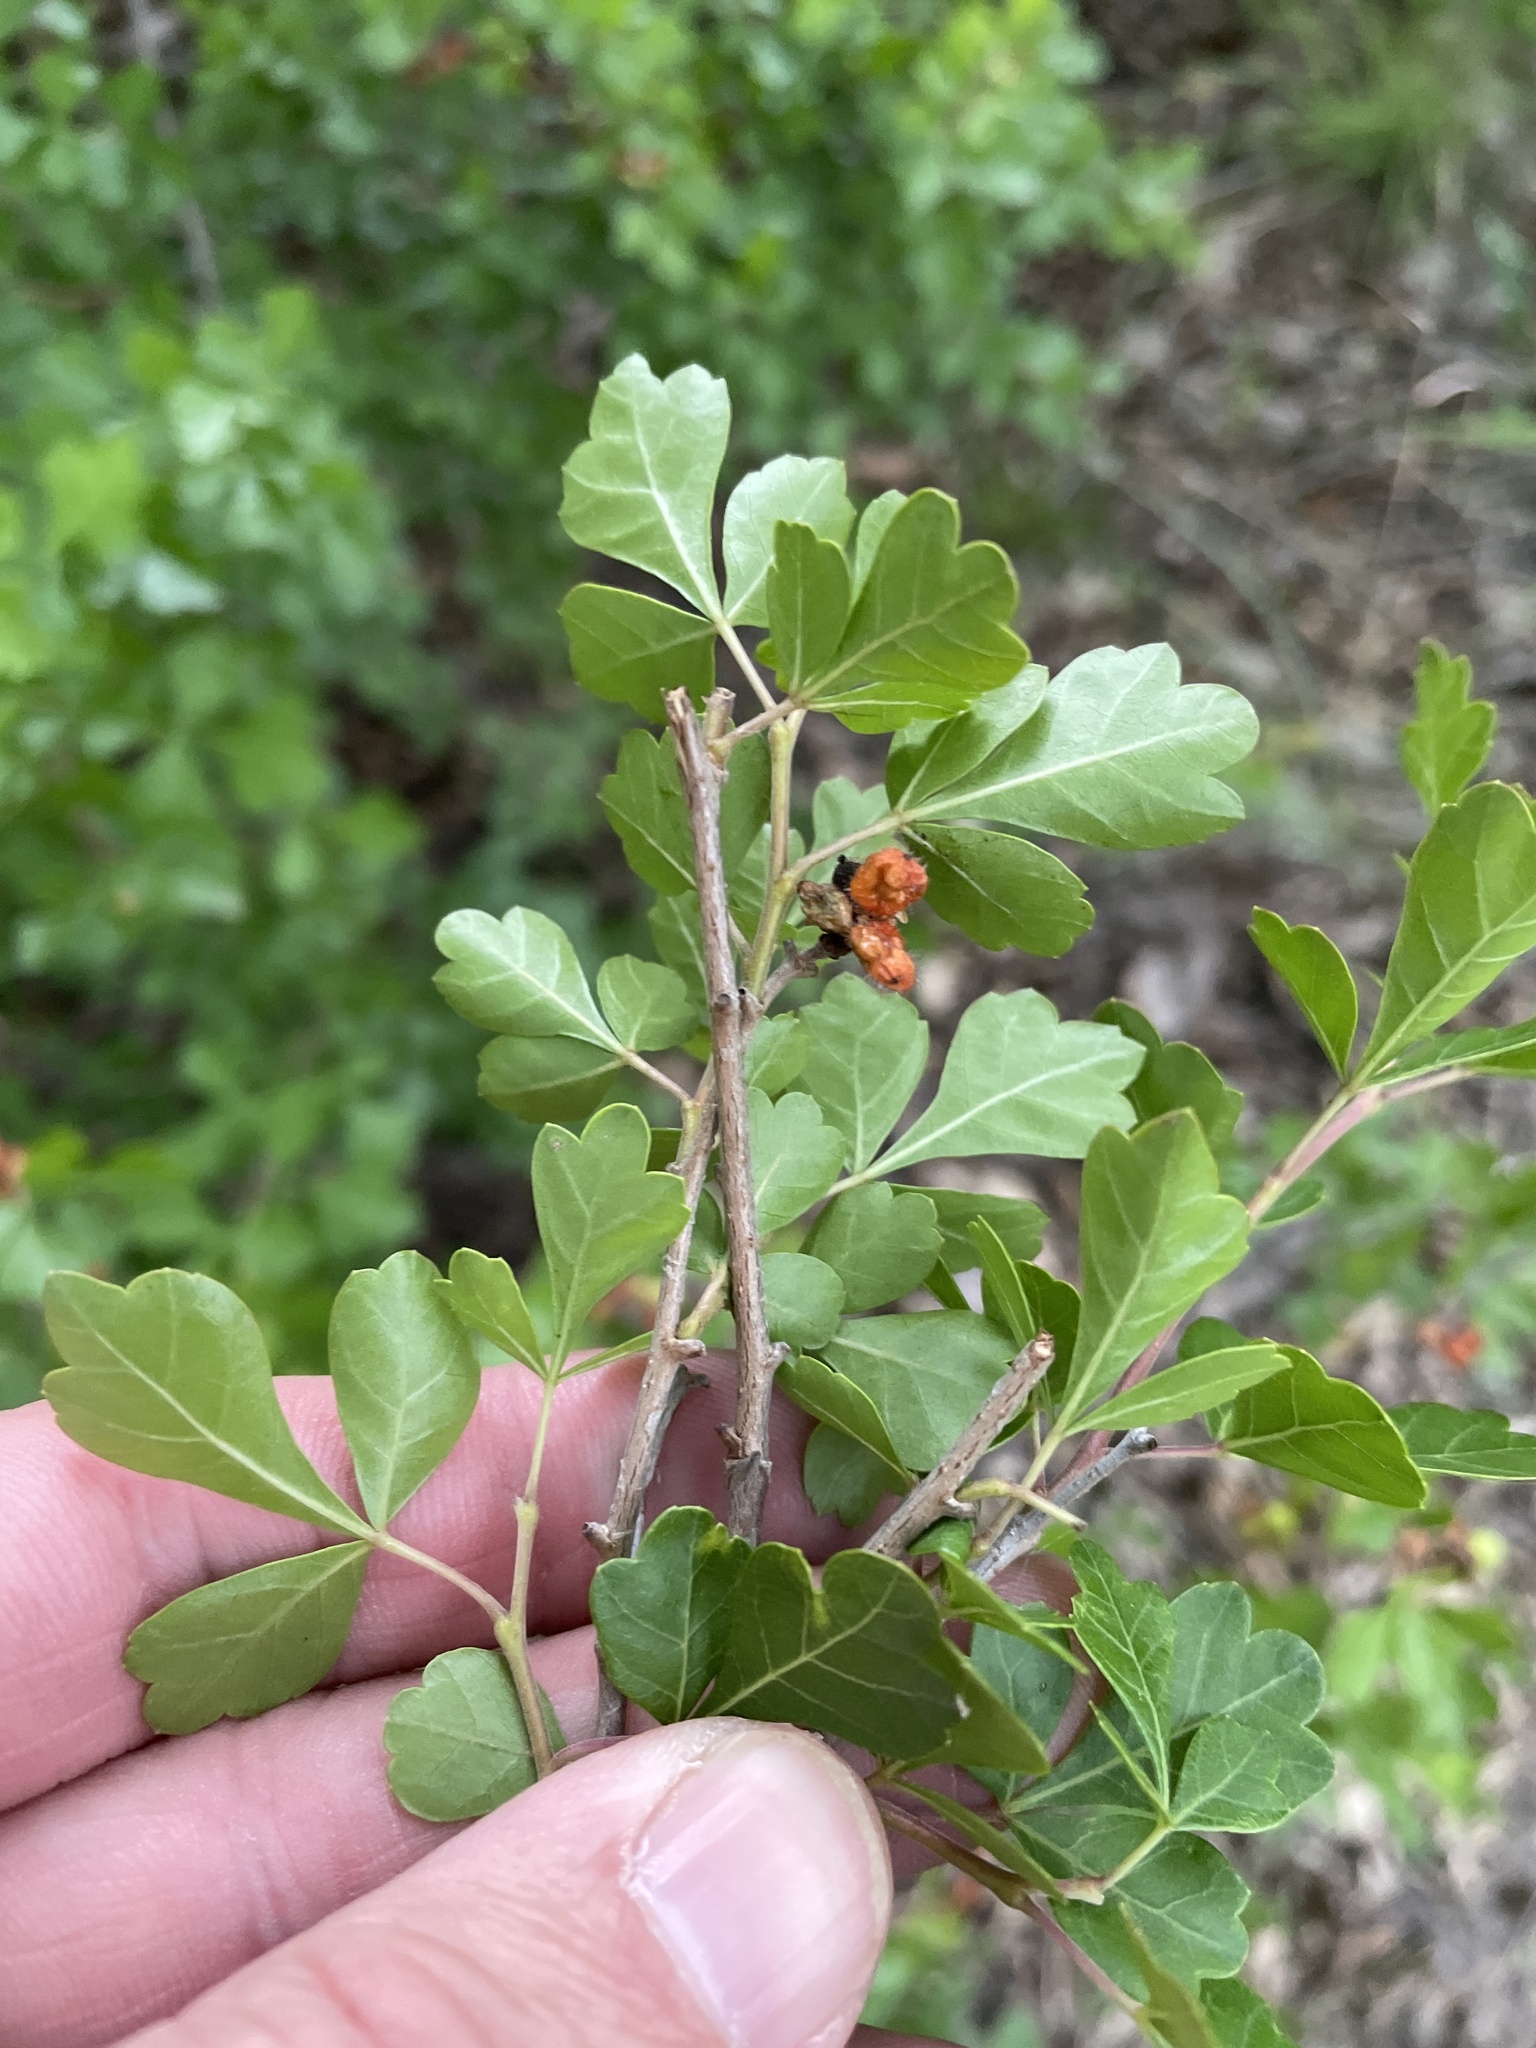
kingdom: Plantae
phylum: Tracheophyta
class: Magnoliopsida
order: Sapindales
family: Anacardiaceae
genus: Rhus
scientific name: Rhus aromatica
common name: Aromatic sumac
